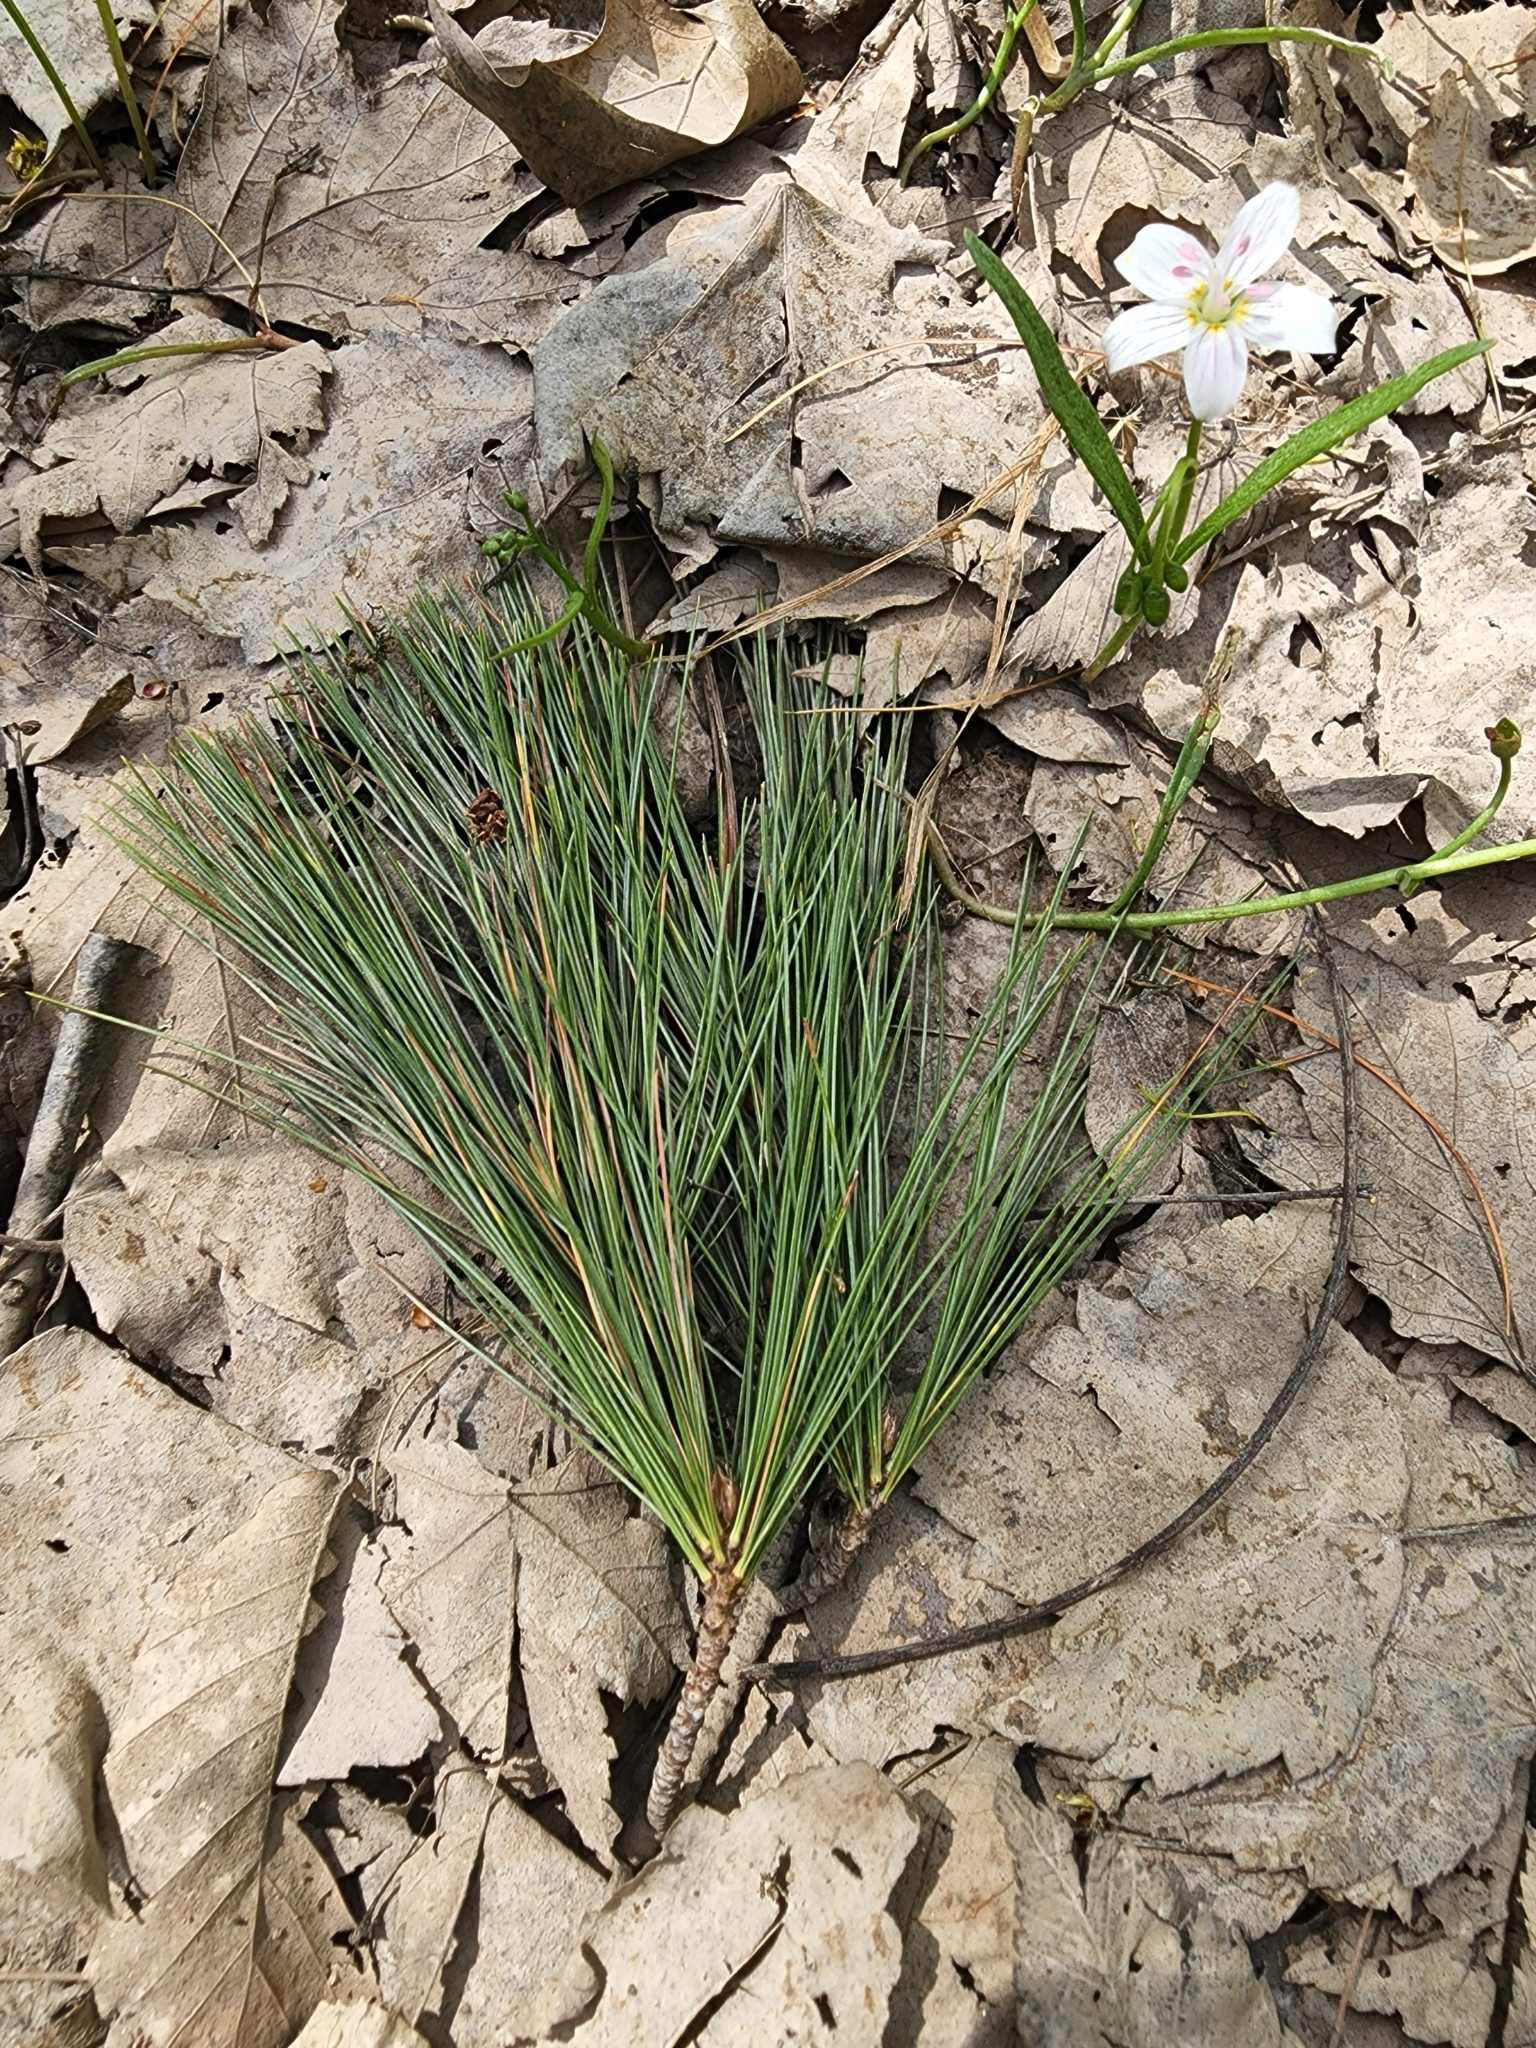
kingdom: Plantae
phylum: Tracheophyta
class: Pinopsida
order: Pinales
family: Pinaceae
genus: Pinus
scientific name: Pinus strobus
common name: Weymouth pine
